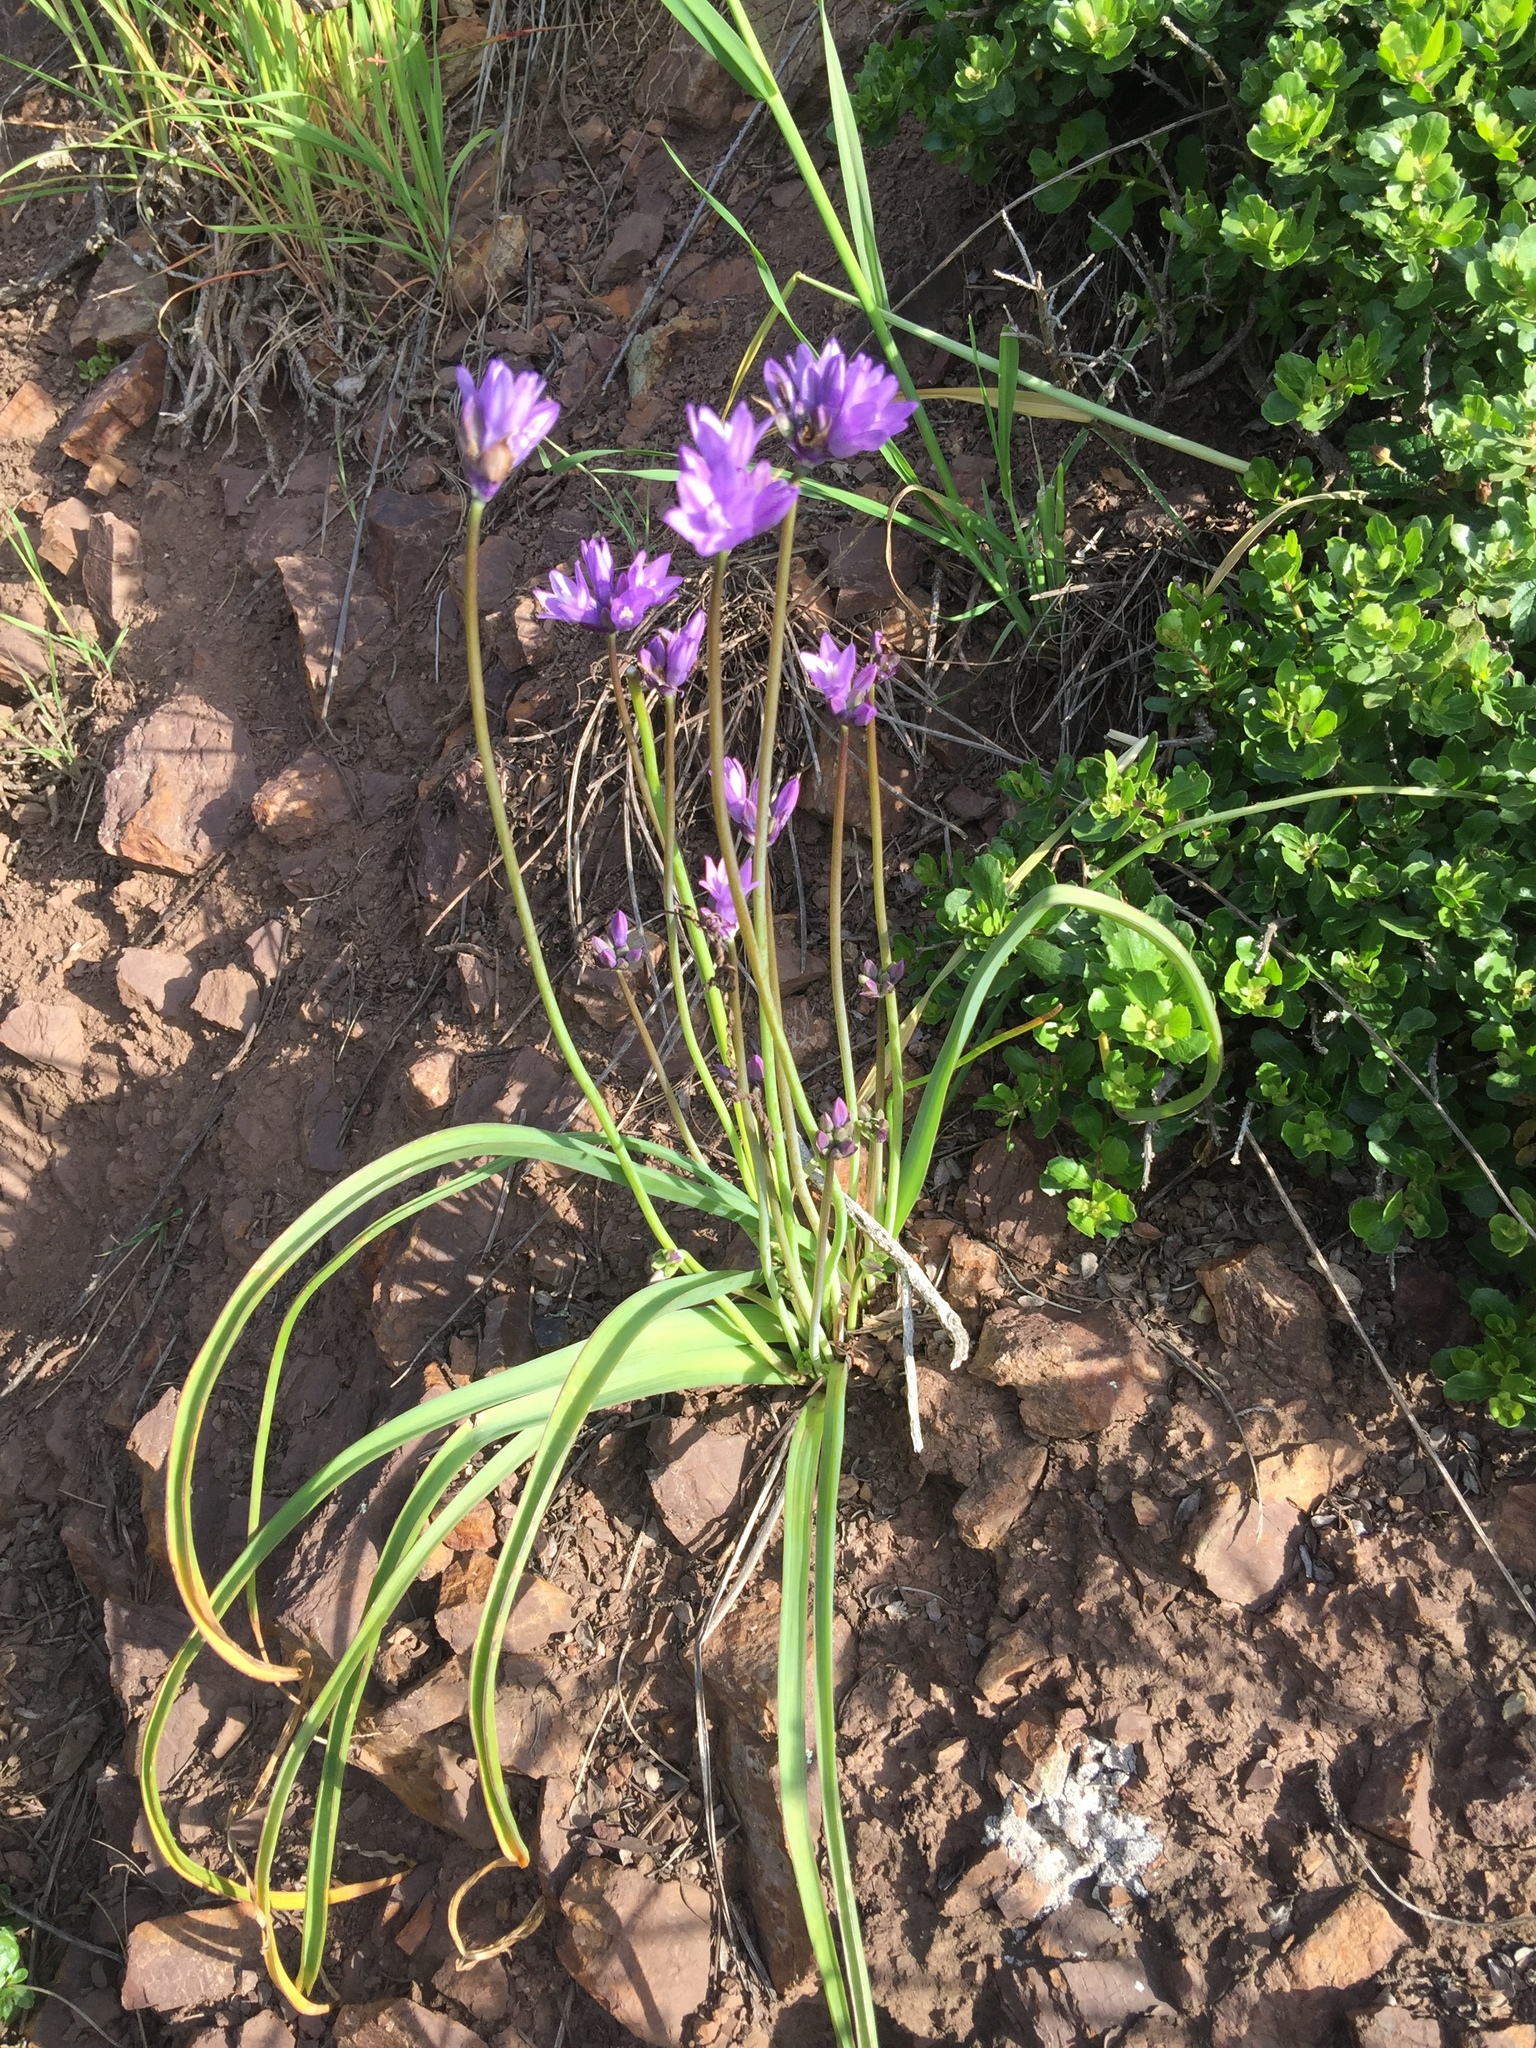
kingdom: Plantae
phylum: Tracheophyta
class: Liliopsida
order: Asparagales
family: Asparagaceae
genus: Dipterostemon
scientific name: Dipterostemon capitatus
